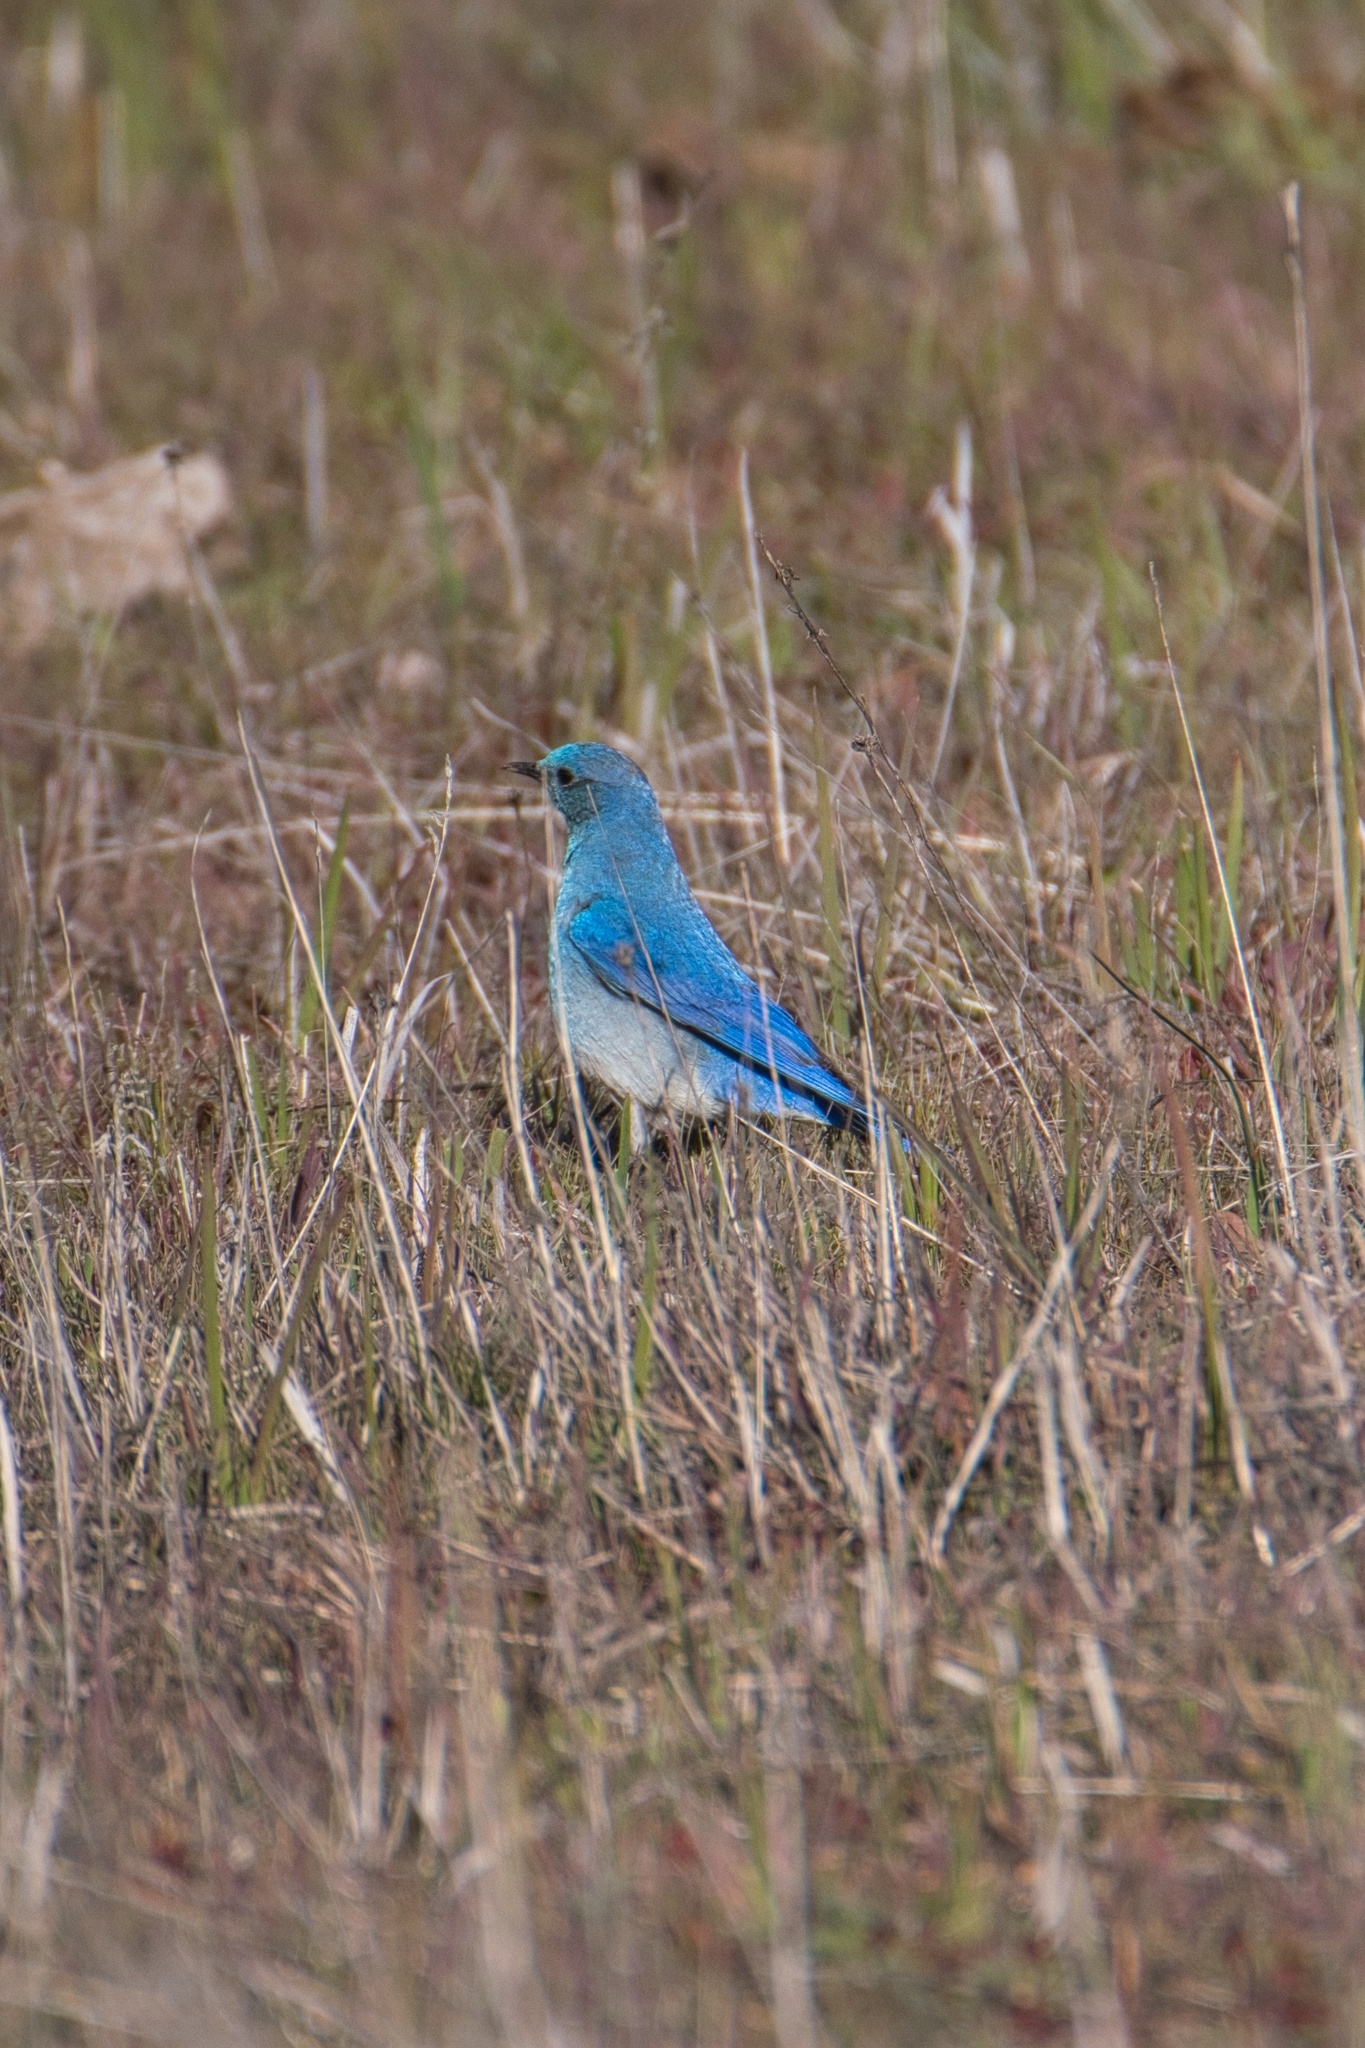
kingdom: Animalia
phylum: Chordata
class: Aves
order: Passeriformes
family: Turdidae
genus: Sialia
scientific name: Sialia currucoides
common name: Mountain bluebird
